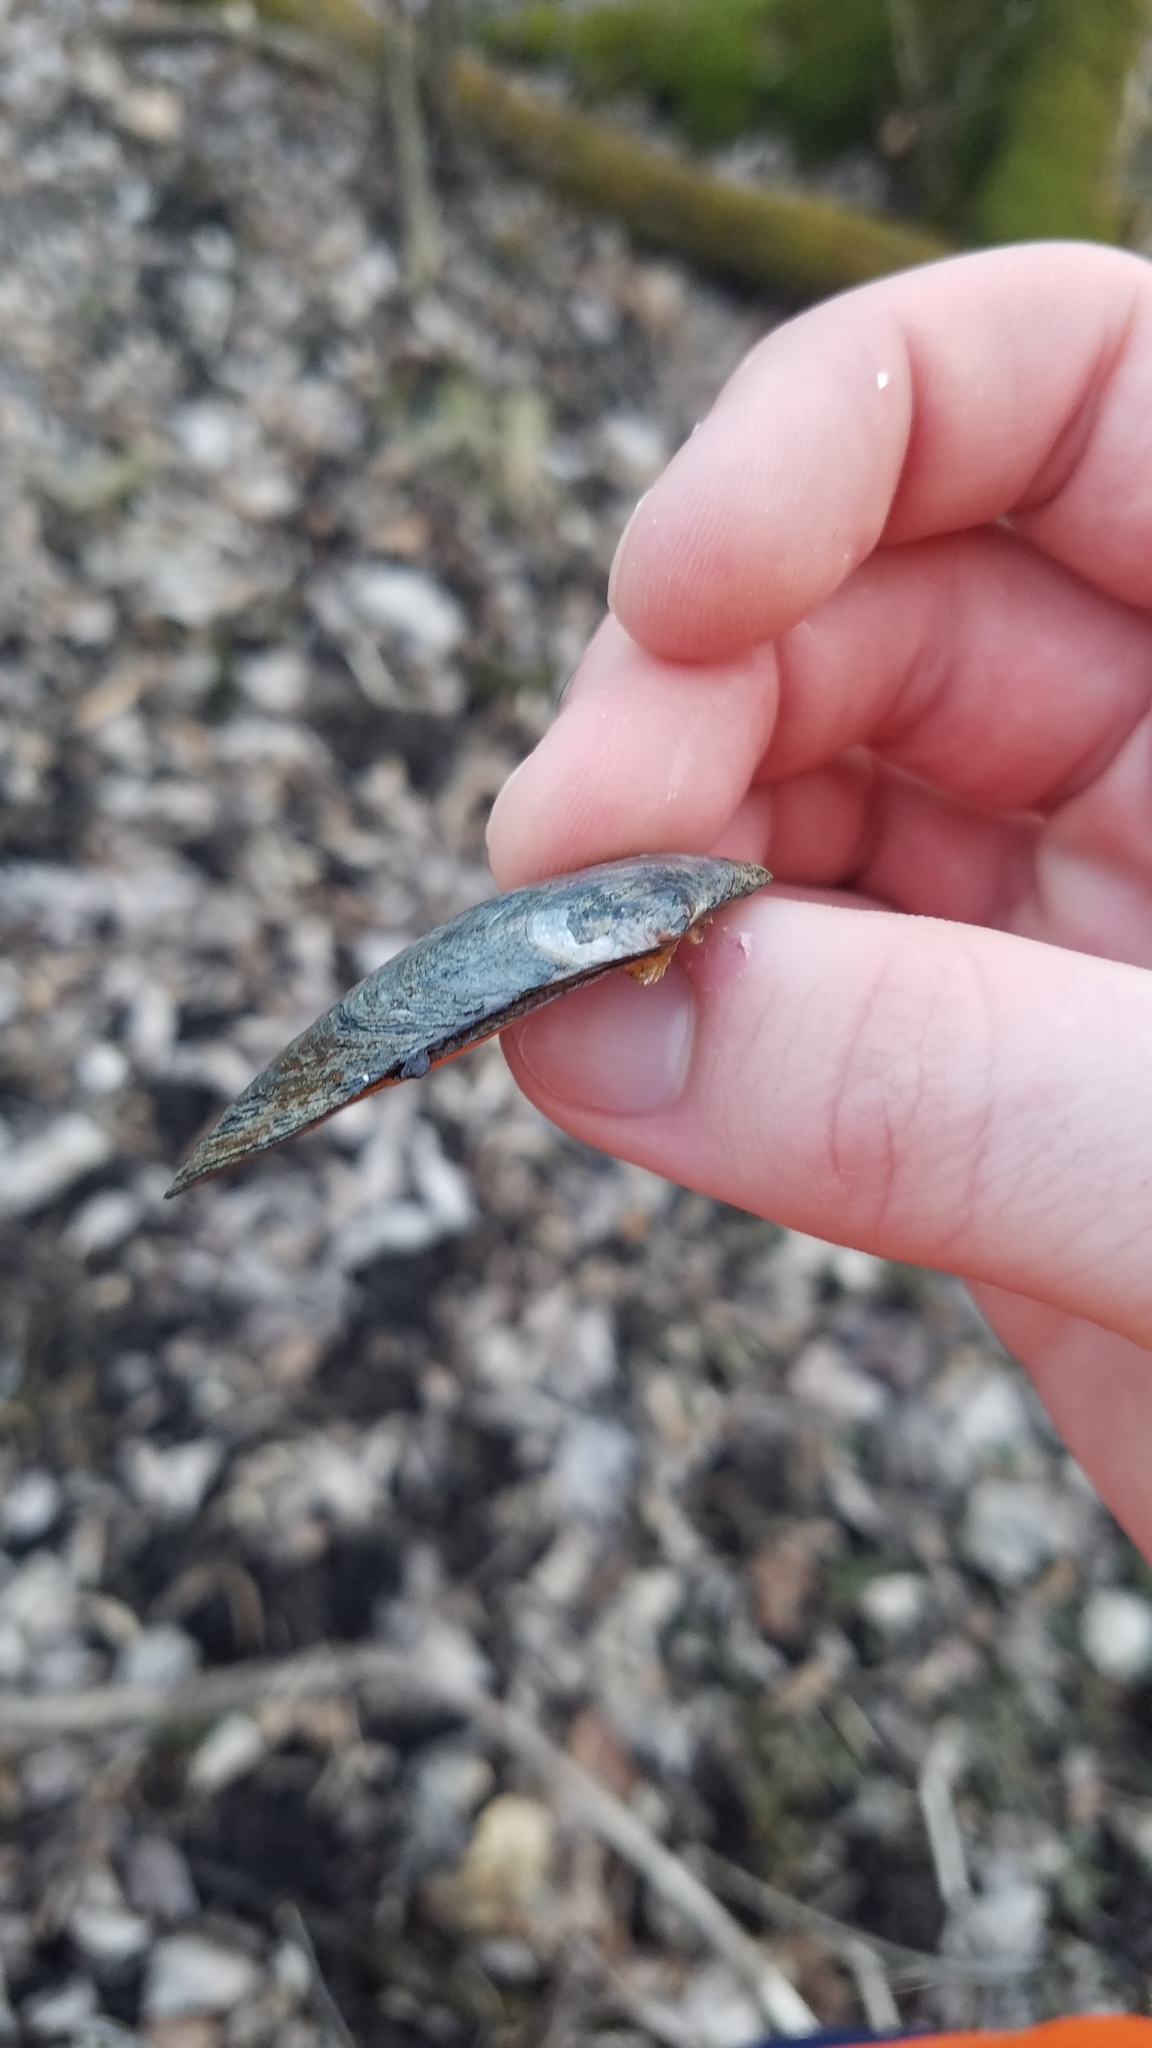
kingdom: Animalia
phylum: Mollusca
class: Bivalvia
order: Unionida
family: Unionidae
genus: Venustaconcha
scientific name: Venustaconcha ellipsiformis
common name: Ellipse
